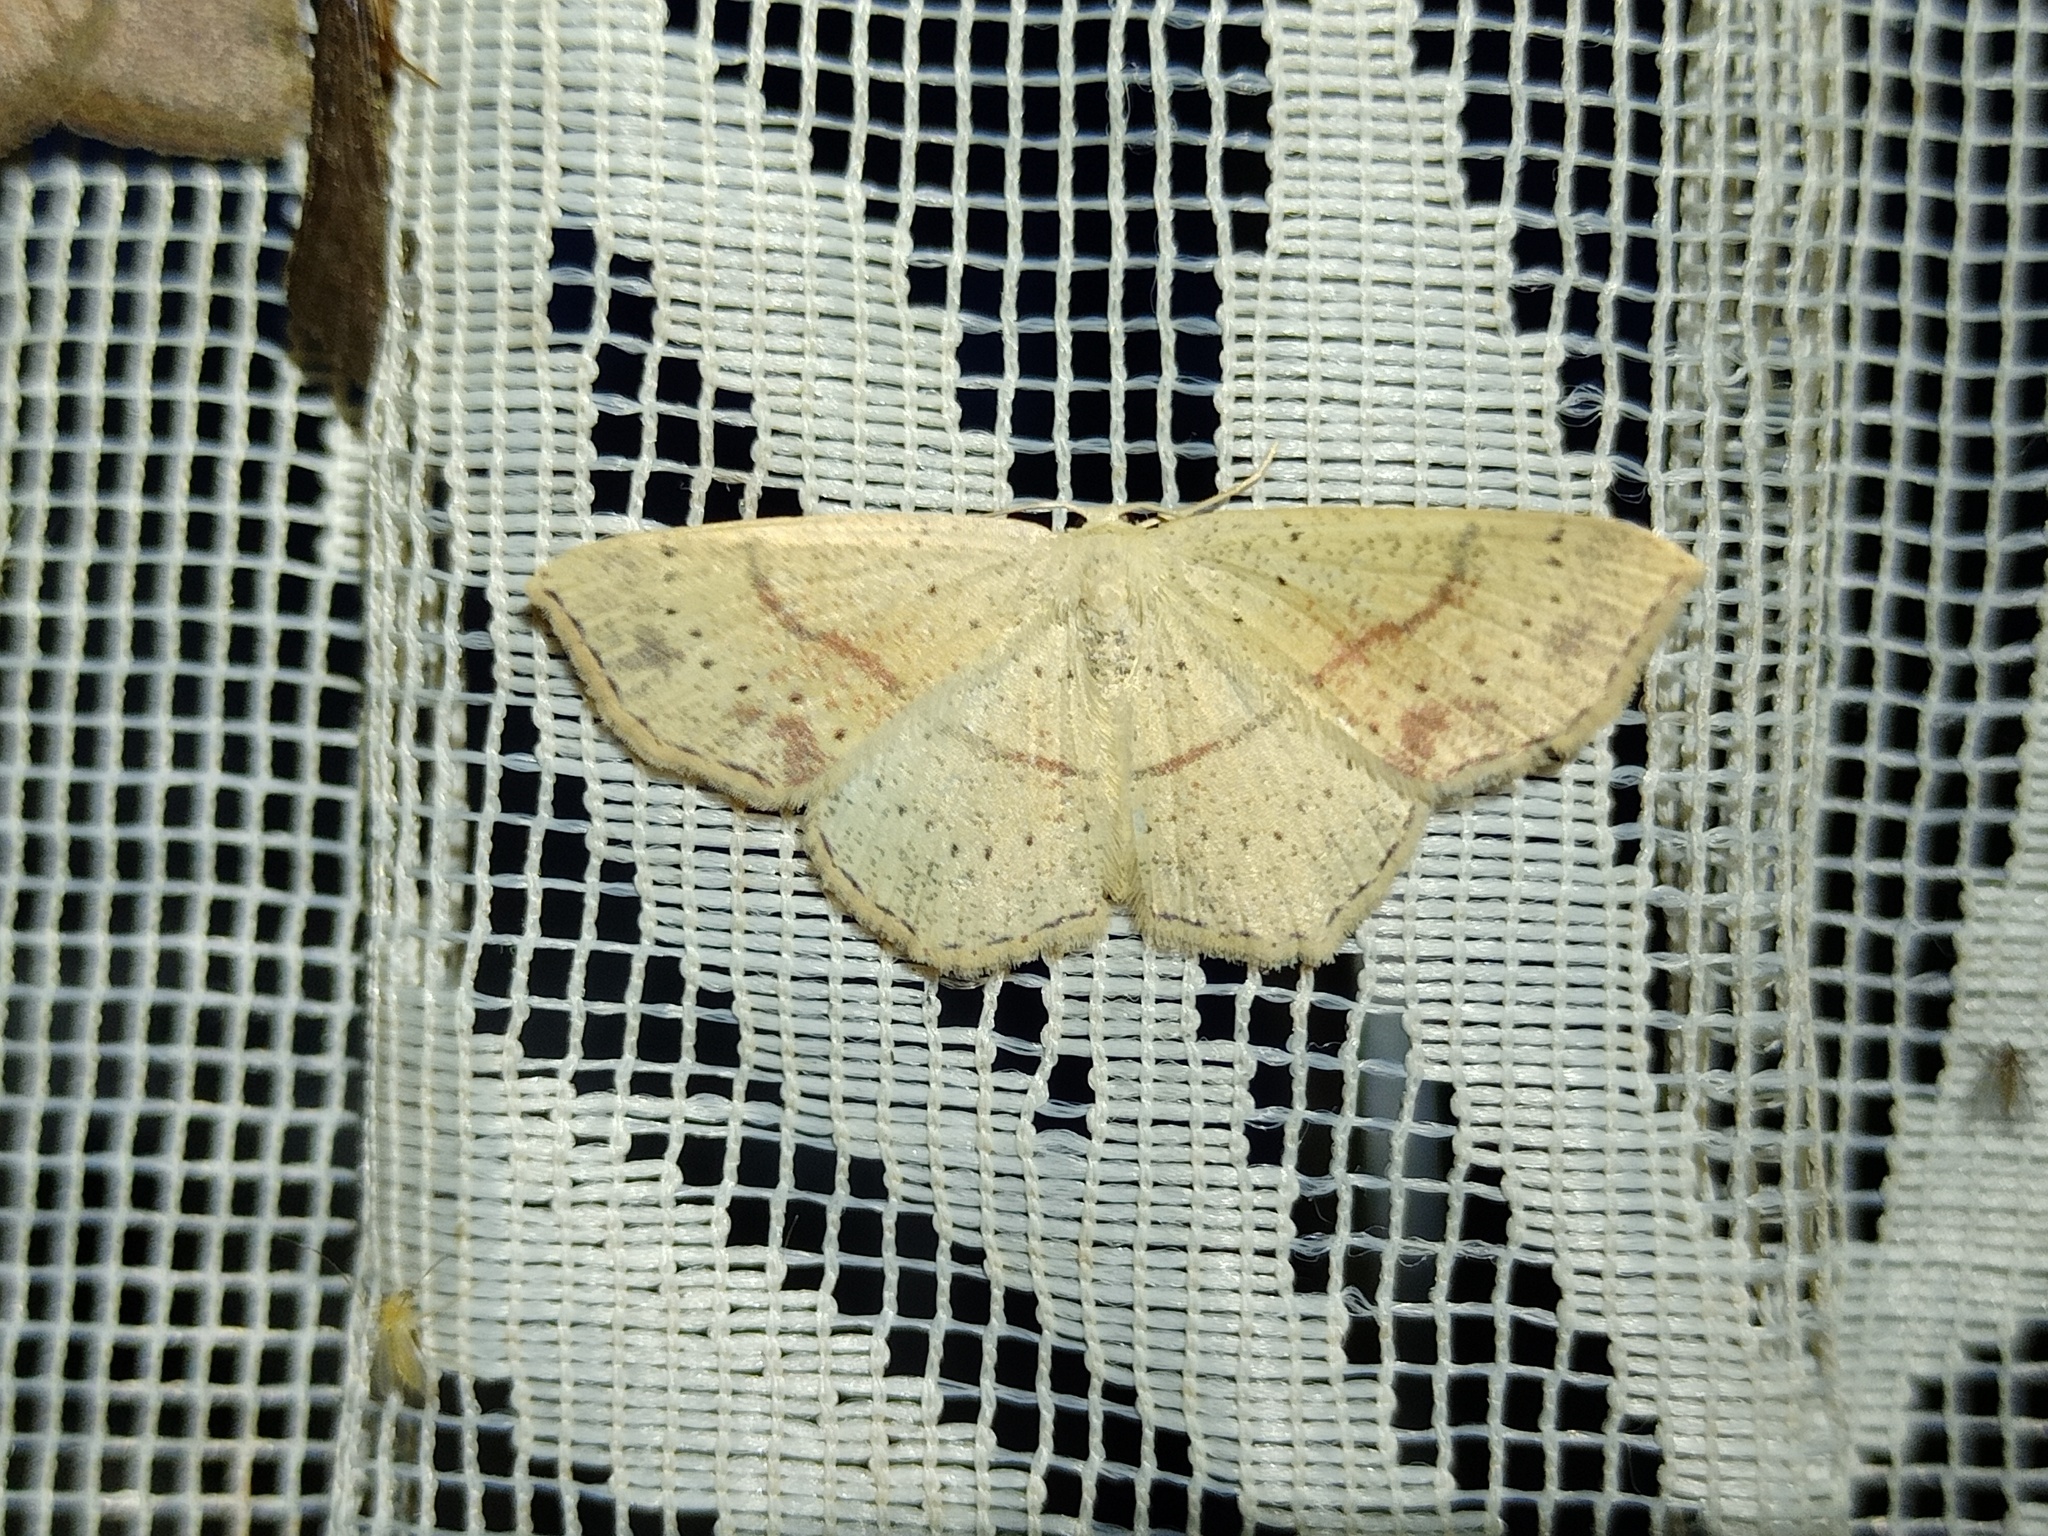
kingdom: Animalia
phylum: Arthropoda
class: Insecta
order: Lepidoptera
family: Geometridae
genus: Cyclophora
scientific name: Cyclophora punctaria
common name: Maiden's blush
